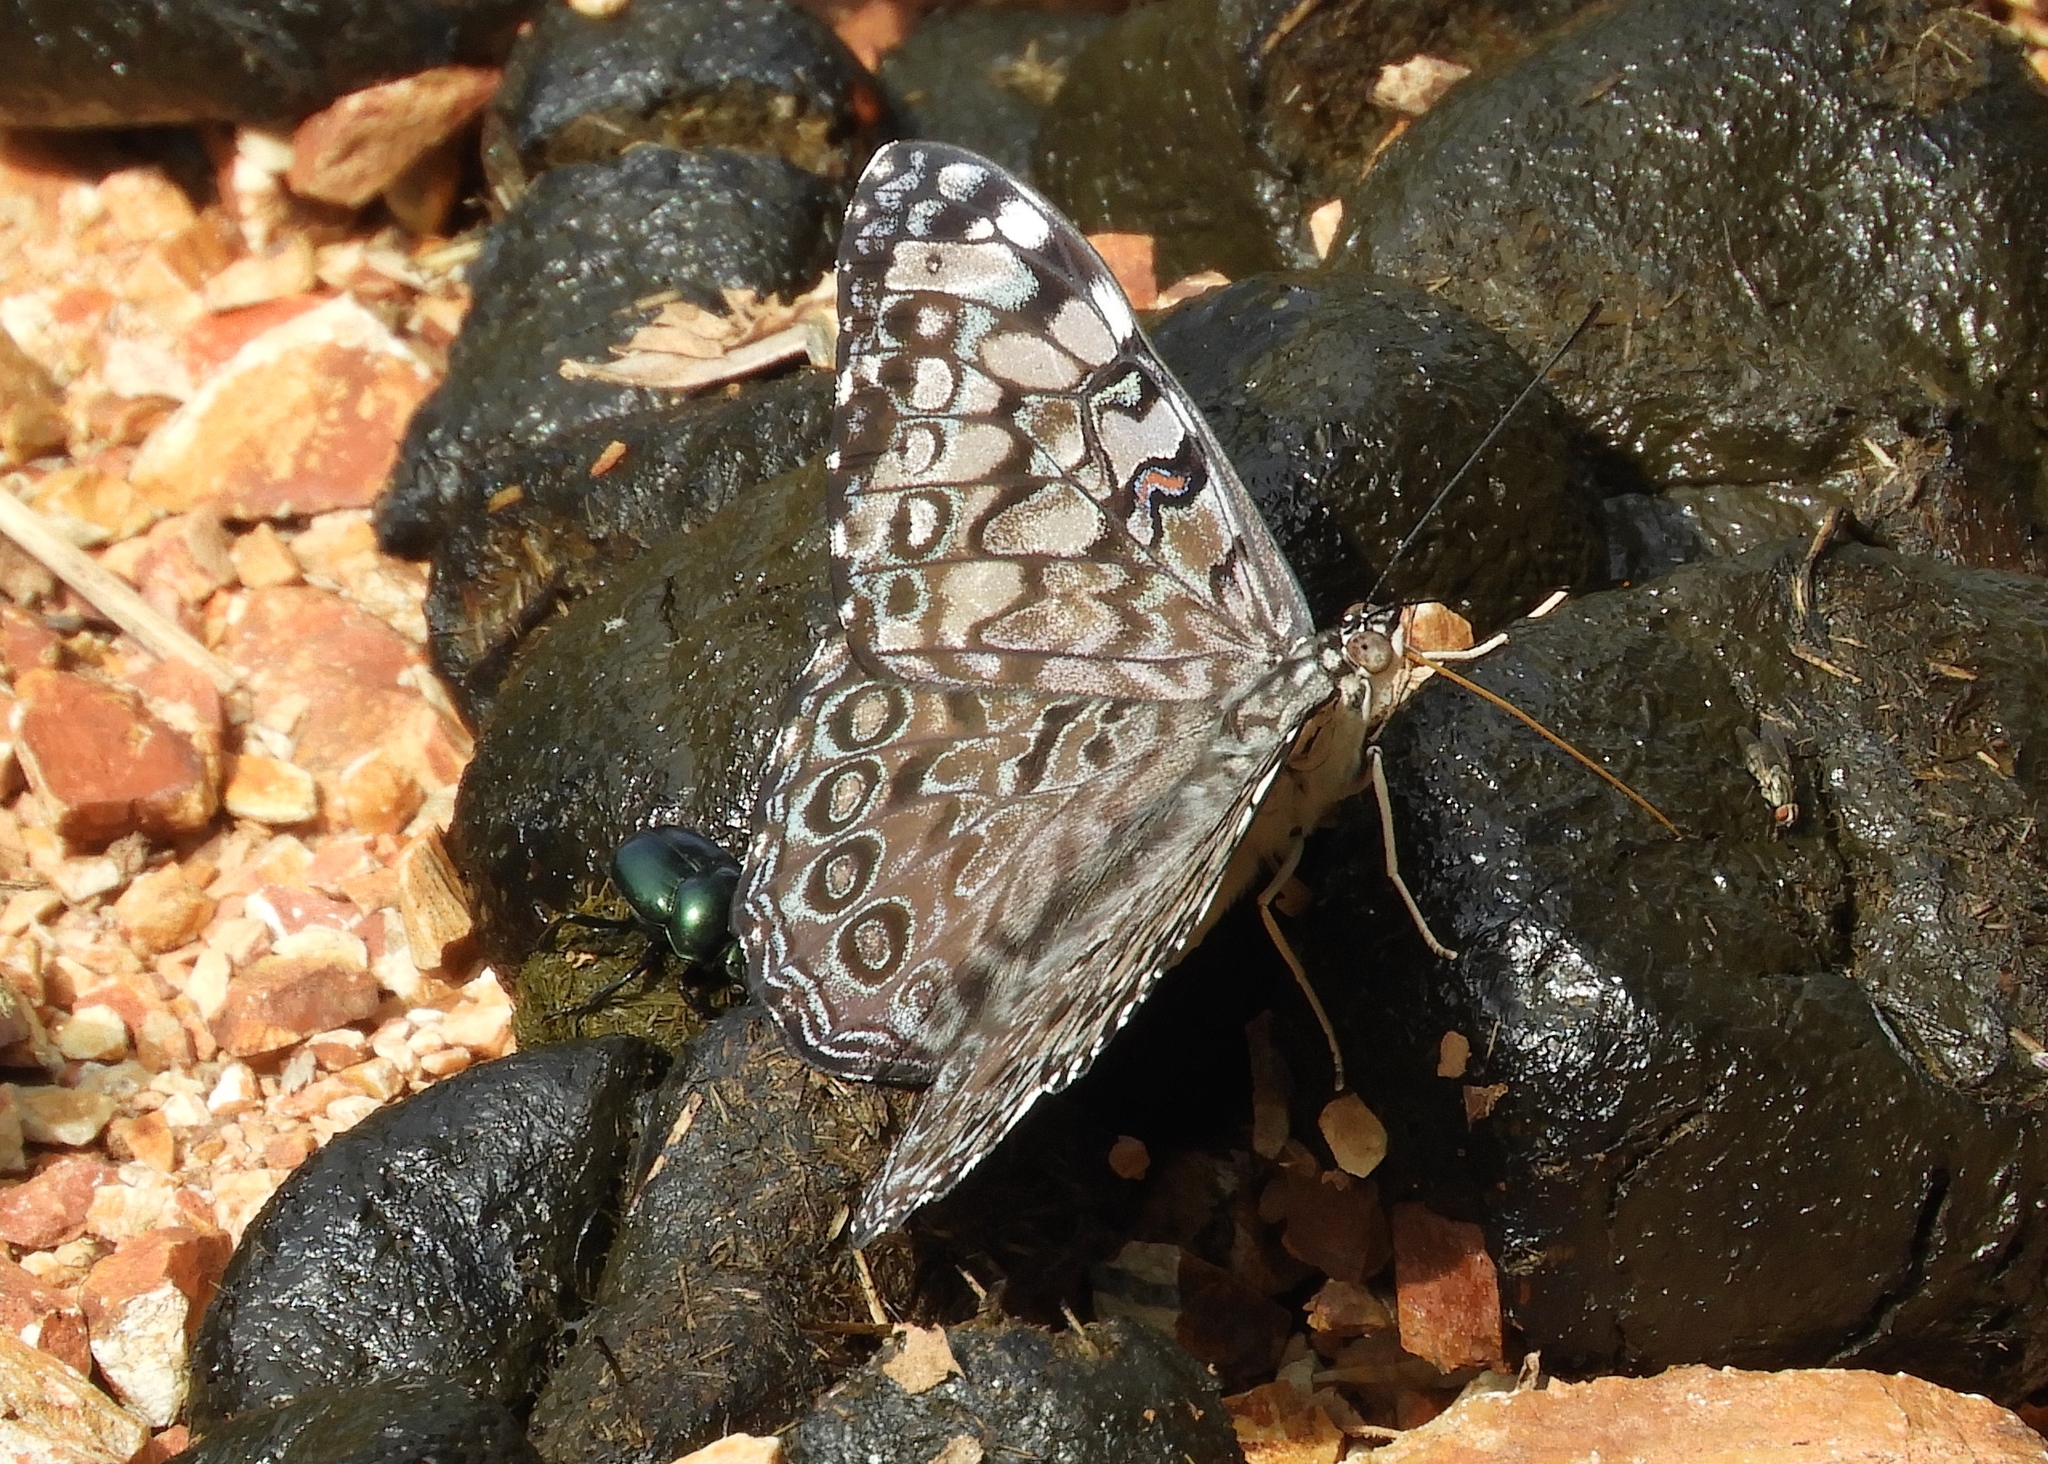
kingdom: Animalia
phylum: Arthropoda
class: Insecta
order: Lepidoptera
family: Nymphalidae
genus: Hamadryas
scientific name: Hamadryas guatemalena
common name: Guatemalan cracker
